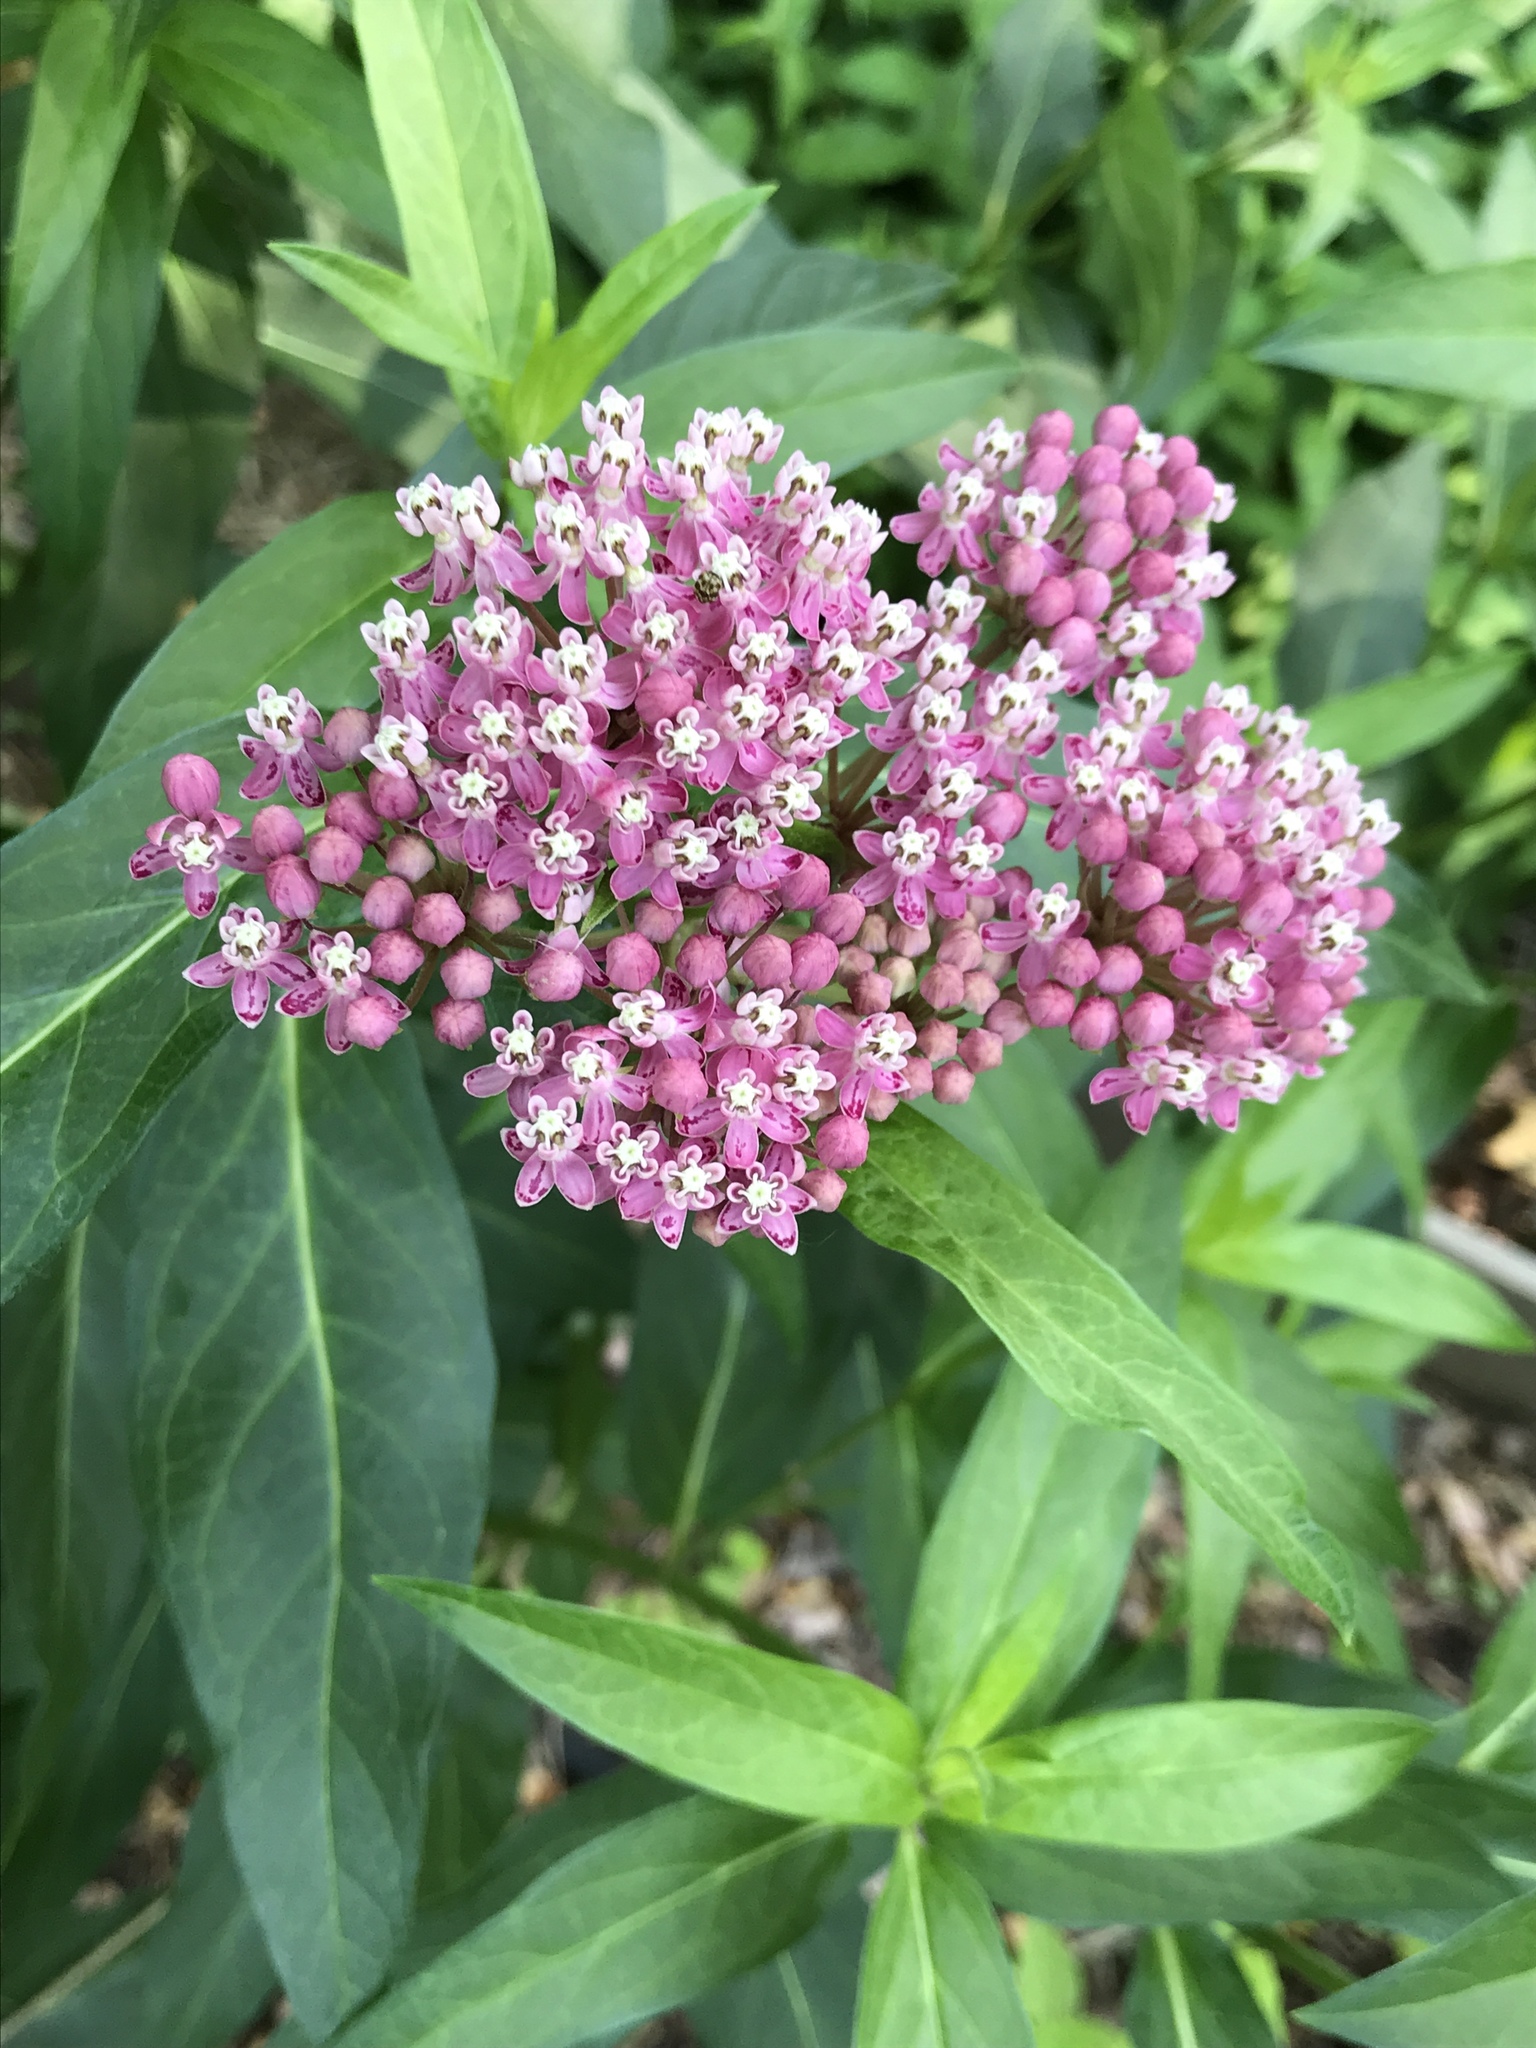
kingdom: Plantae
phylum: Tracheophyta
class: Magnoliopsida
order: Gentianales
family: Apocynaceae
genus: Asclepias
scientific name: Asclepias incarnata
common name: Swamp milkweed
